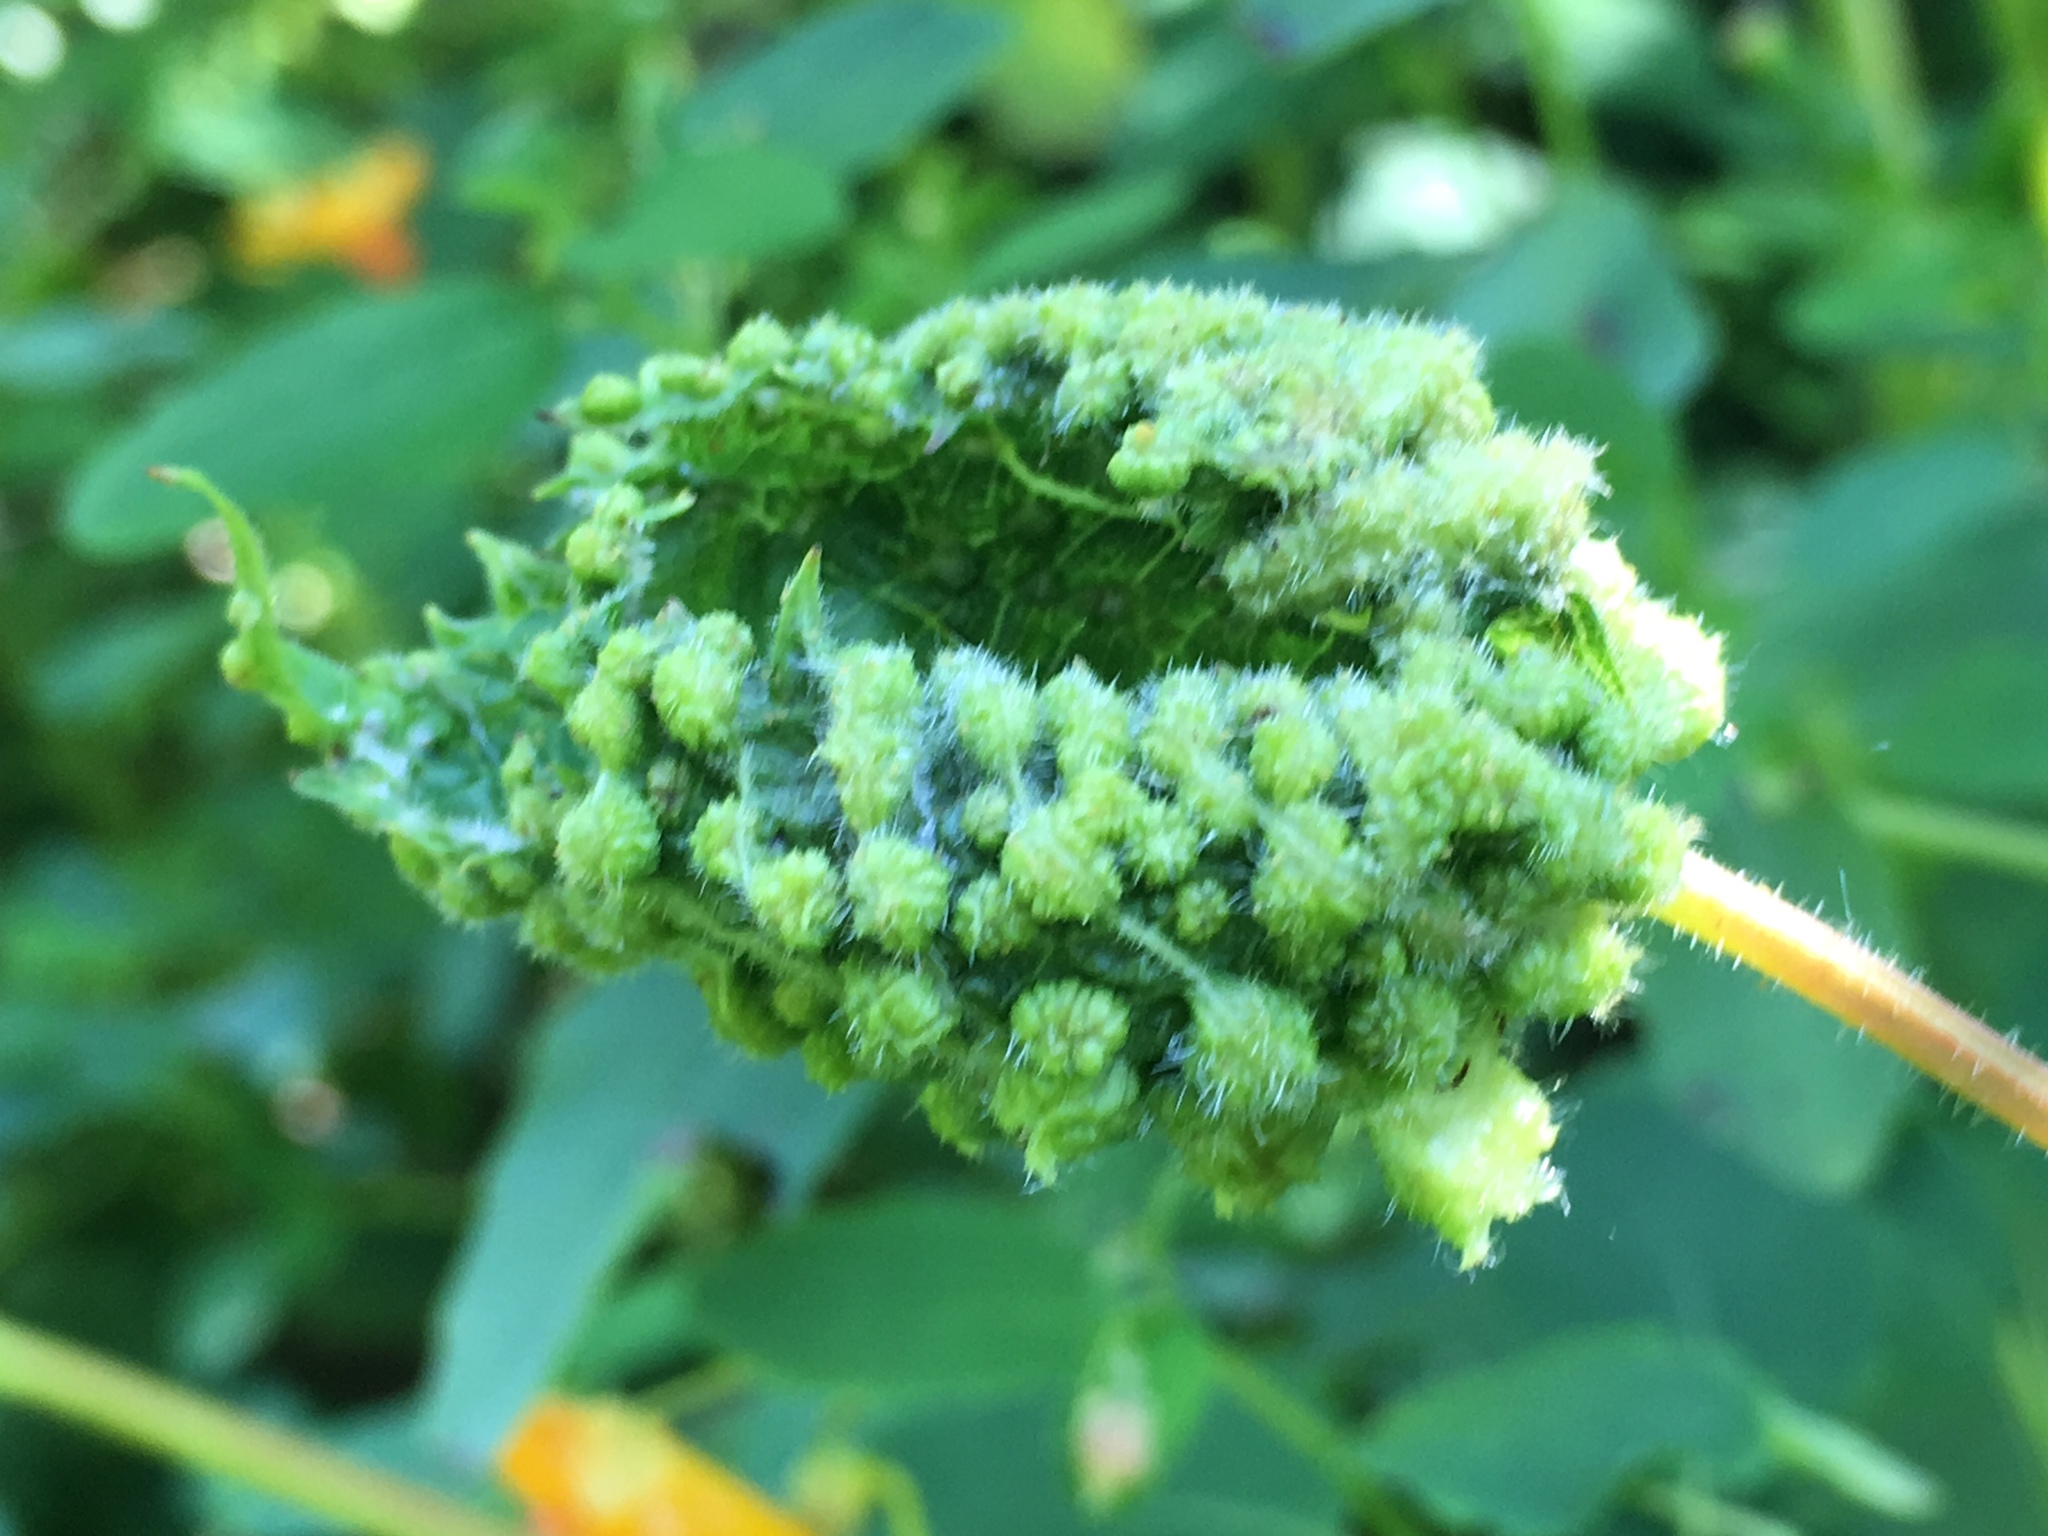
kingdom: Animalia
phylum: Arthropoda
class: Insecta
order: Hemiptera
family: Phylloxeridae
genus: Daktulosphaira
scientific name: Daktulosphaira vitifoliae
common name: Grape phylloxera
